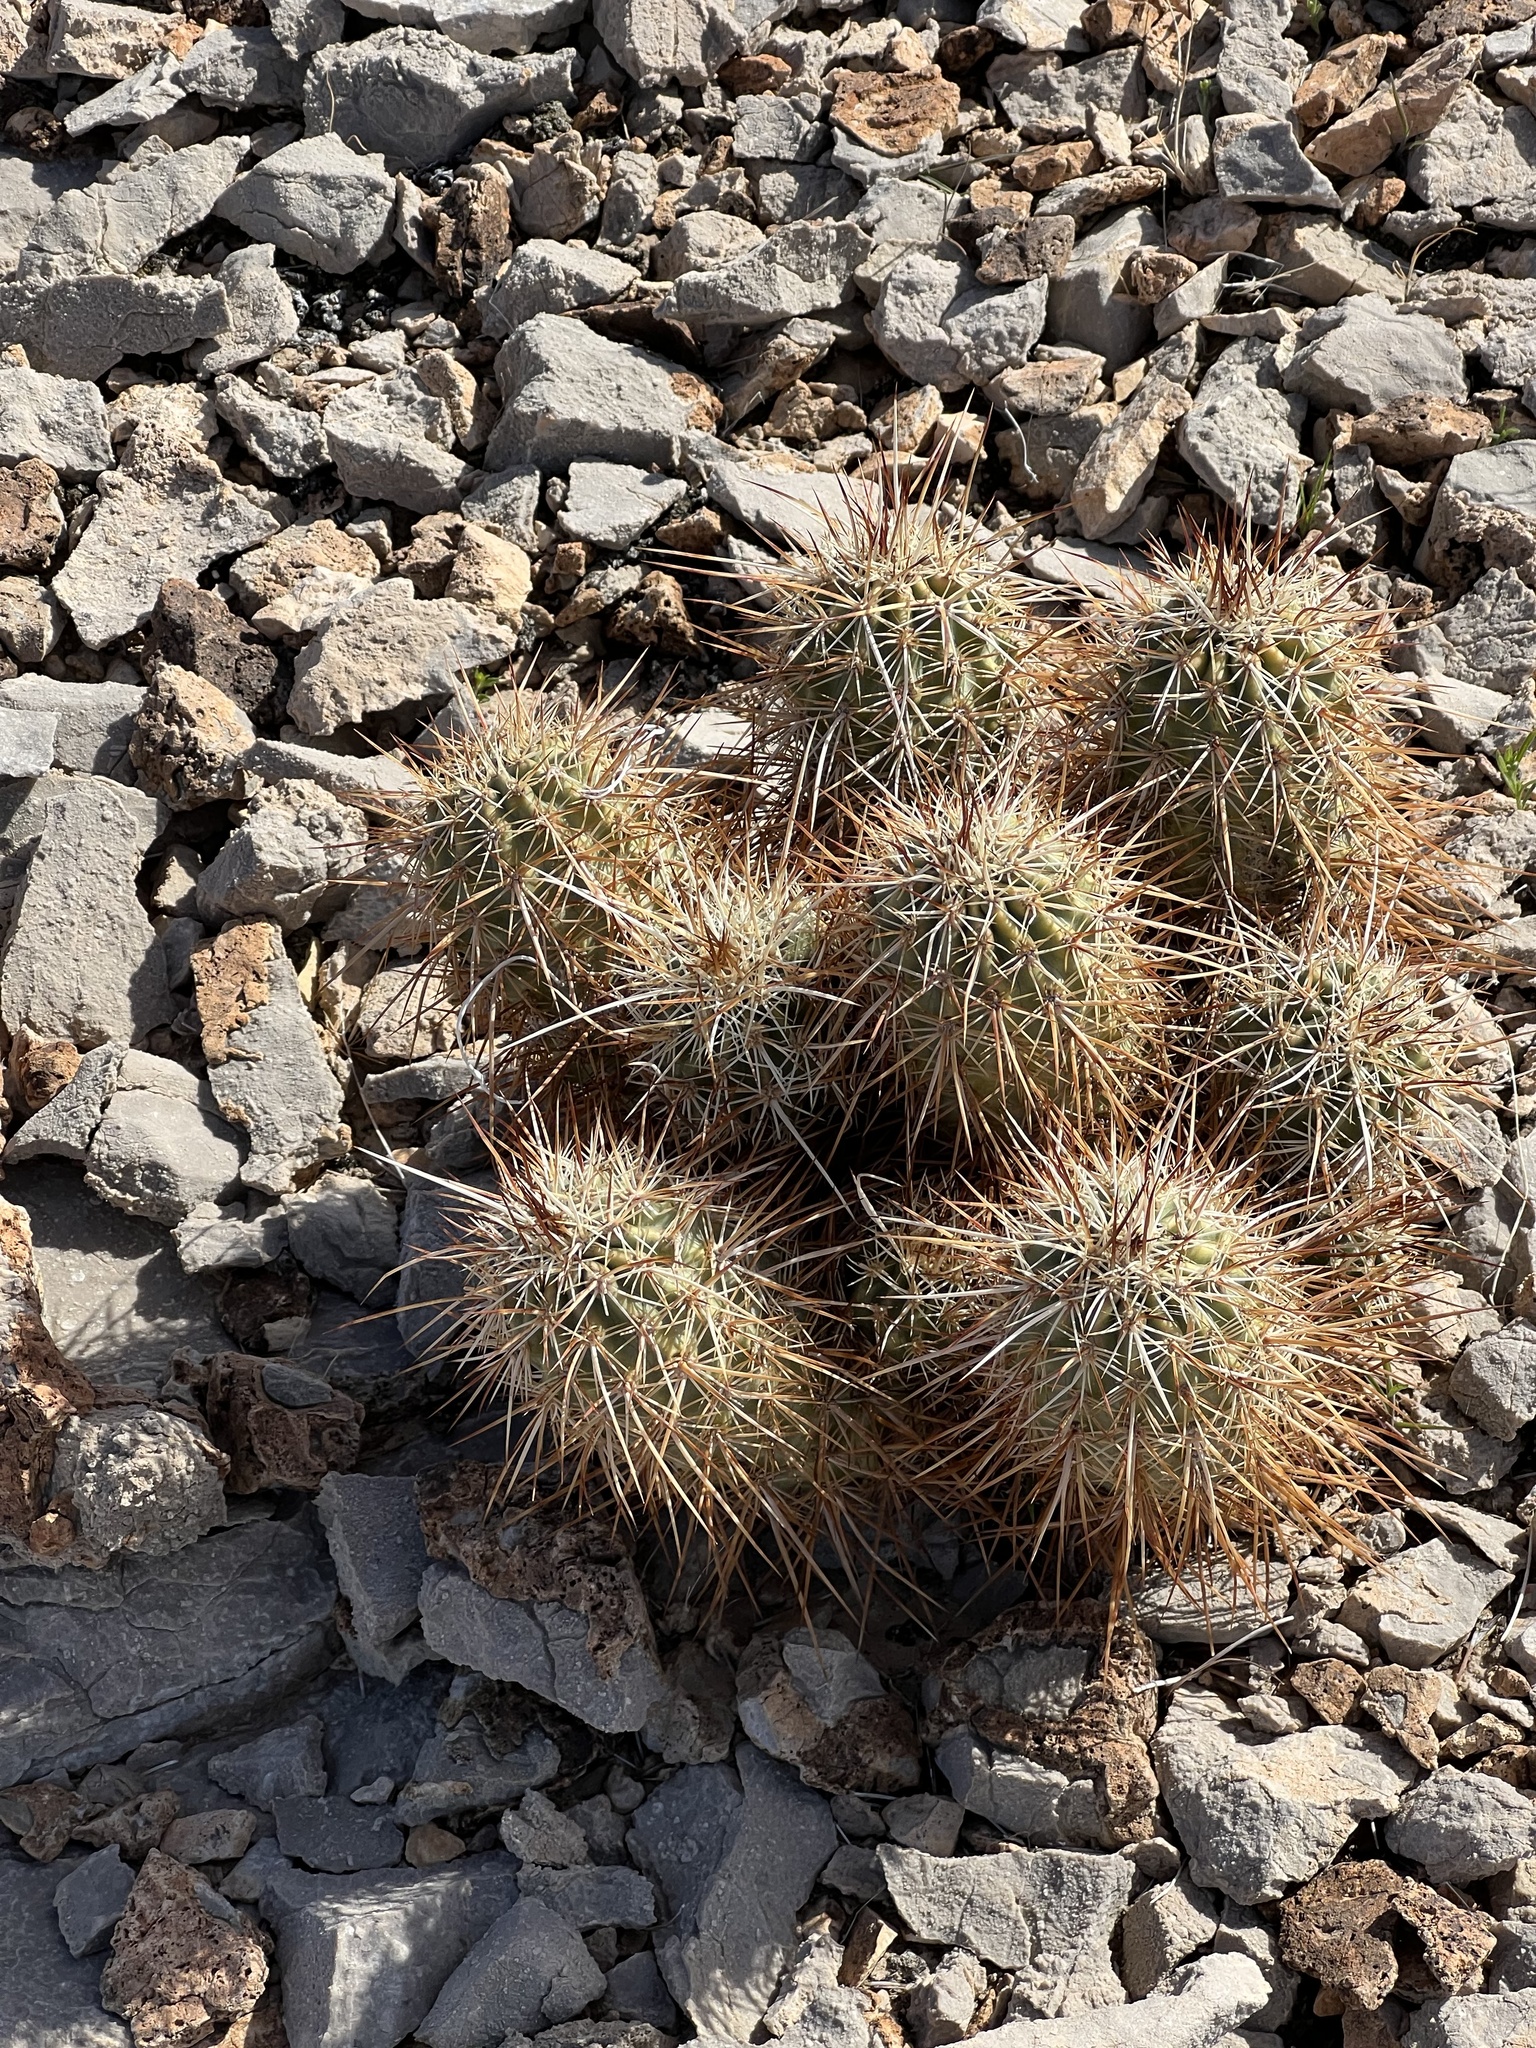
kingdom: Plantae
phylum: Tracheophyta
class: Magnoliopsida
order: Caryophyllales
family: Cactaceae
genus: Echinocereus
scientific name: Echinocereus engelmannii
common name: Engelmann's hedgehog cactus
